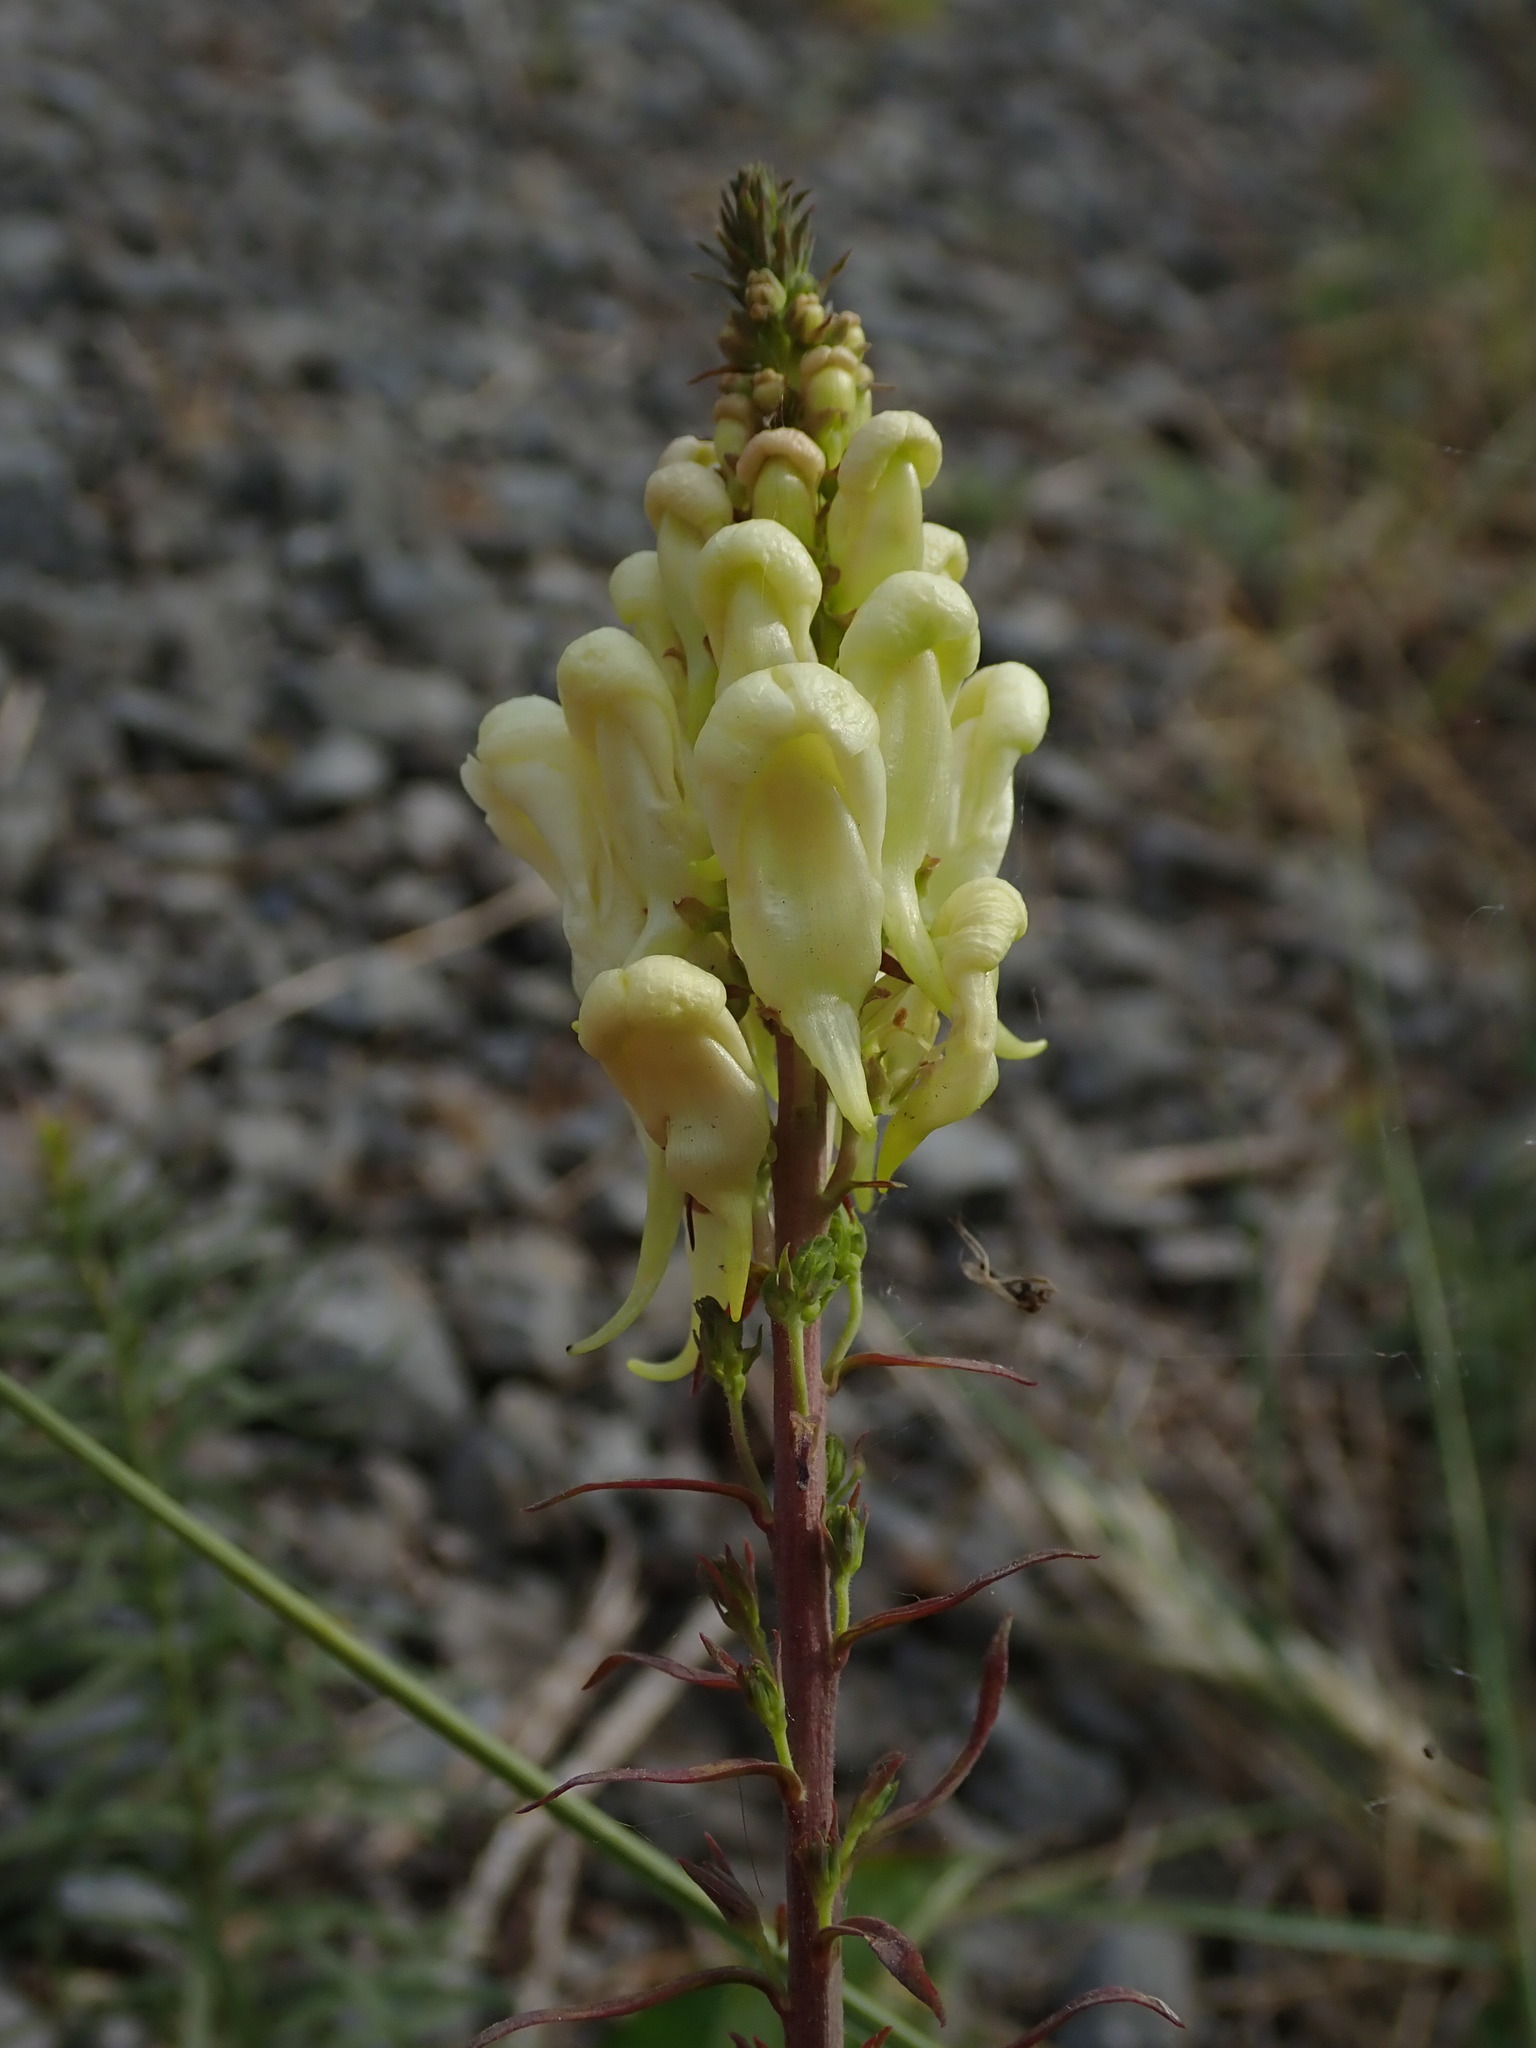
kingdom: Plantae
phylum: Tracheophyta
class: Magnoliopsida
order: Lamiales
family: Plantaginaceae
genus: Linaria
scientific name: Linaria vulgaris
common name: Butter and eggs
